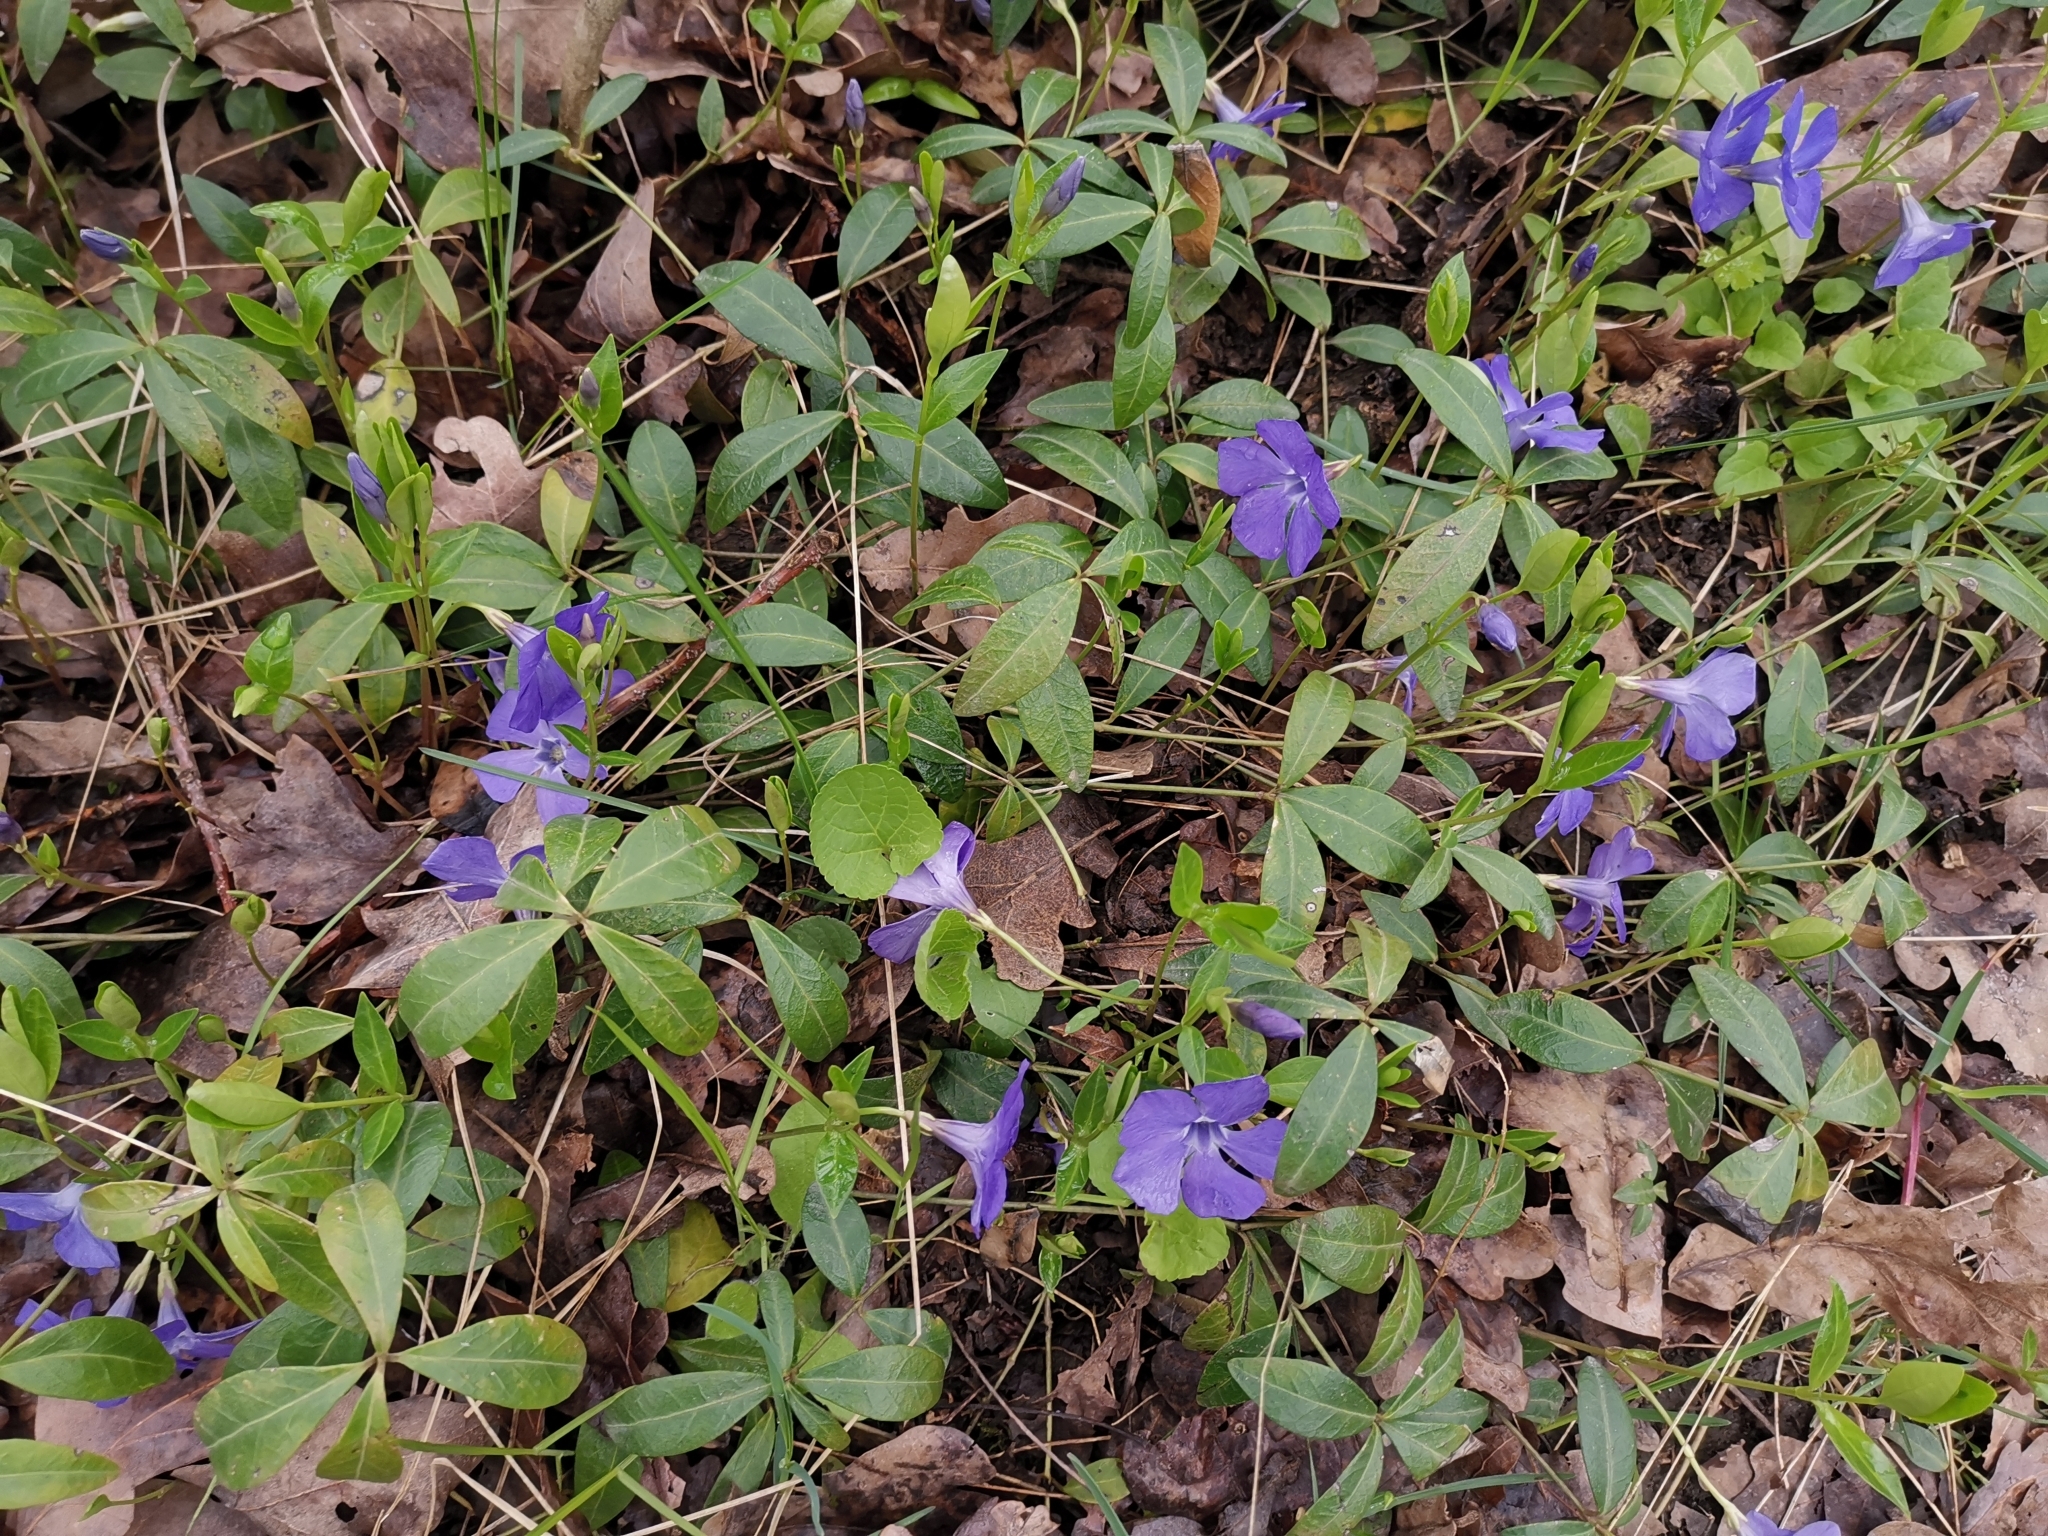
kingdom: Plantae
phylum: Tracheophyta
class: Magnoliopsida
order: Gentianales
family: Apocynaceae
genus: Vinca
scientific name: Vinca minor
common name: Lesser periwinkle
